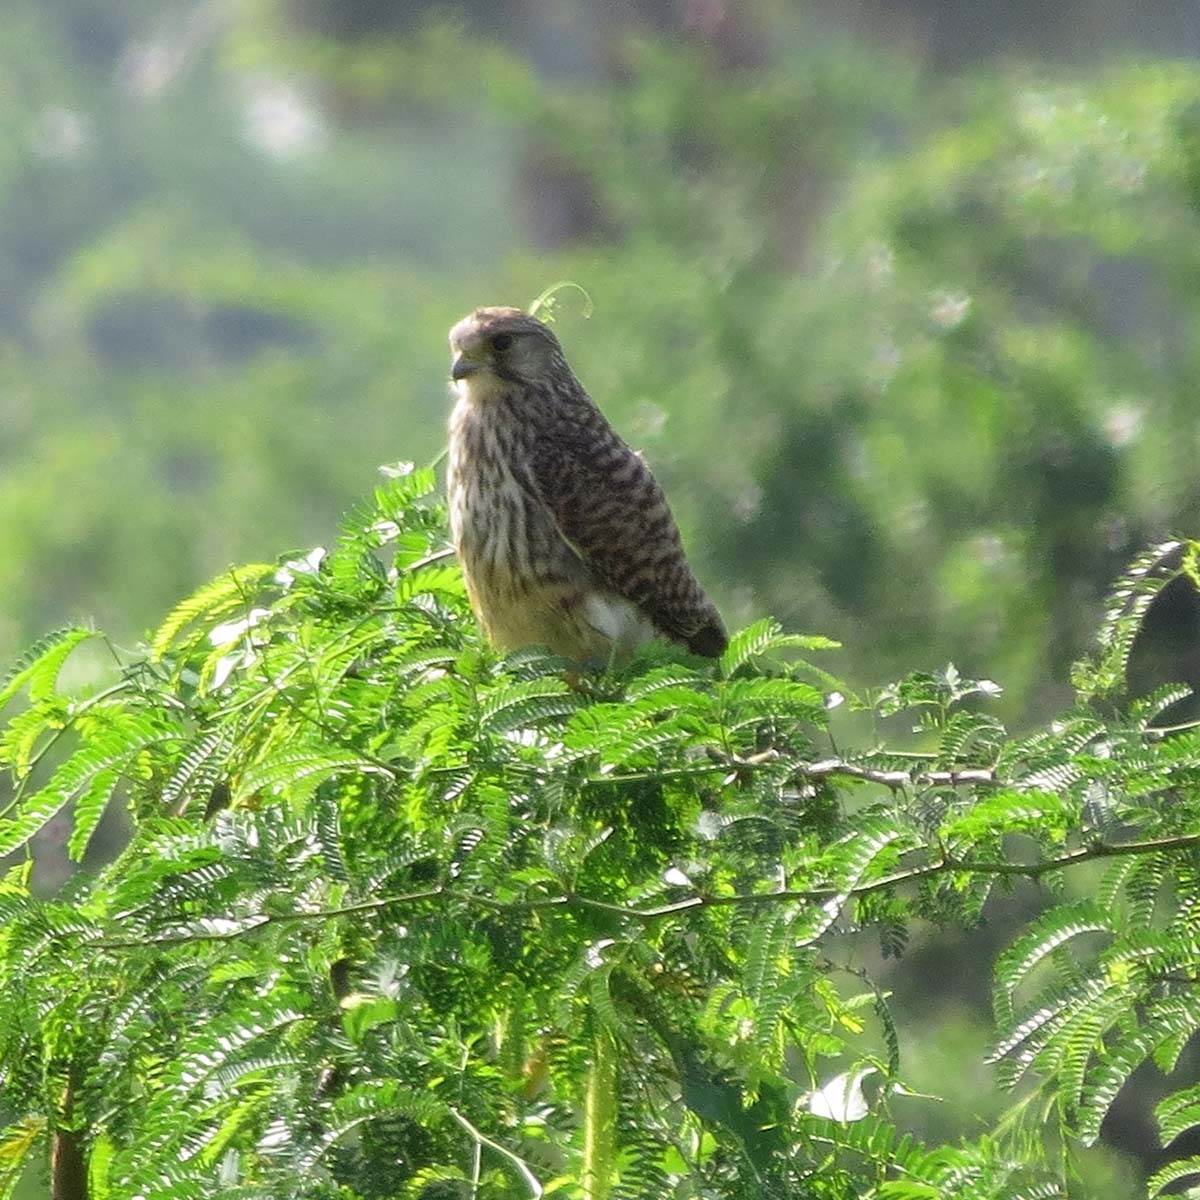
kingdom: Animalia
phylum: Chordata
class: Aves
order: Falconiformes
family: Falconidae
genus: Falco
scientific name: Falco tinnunculus
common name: Common kestrel
